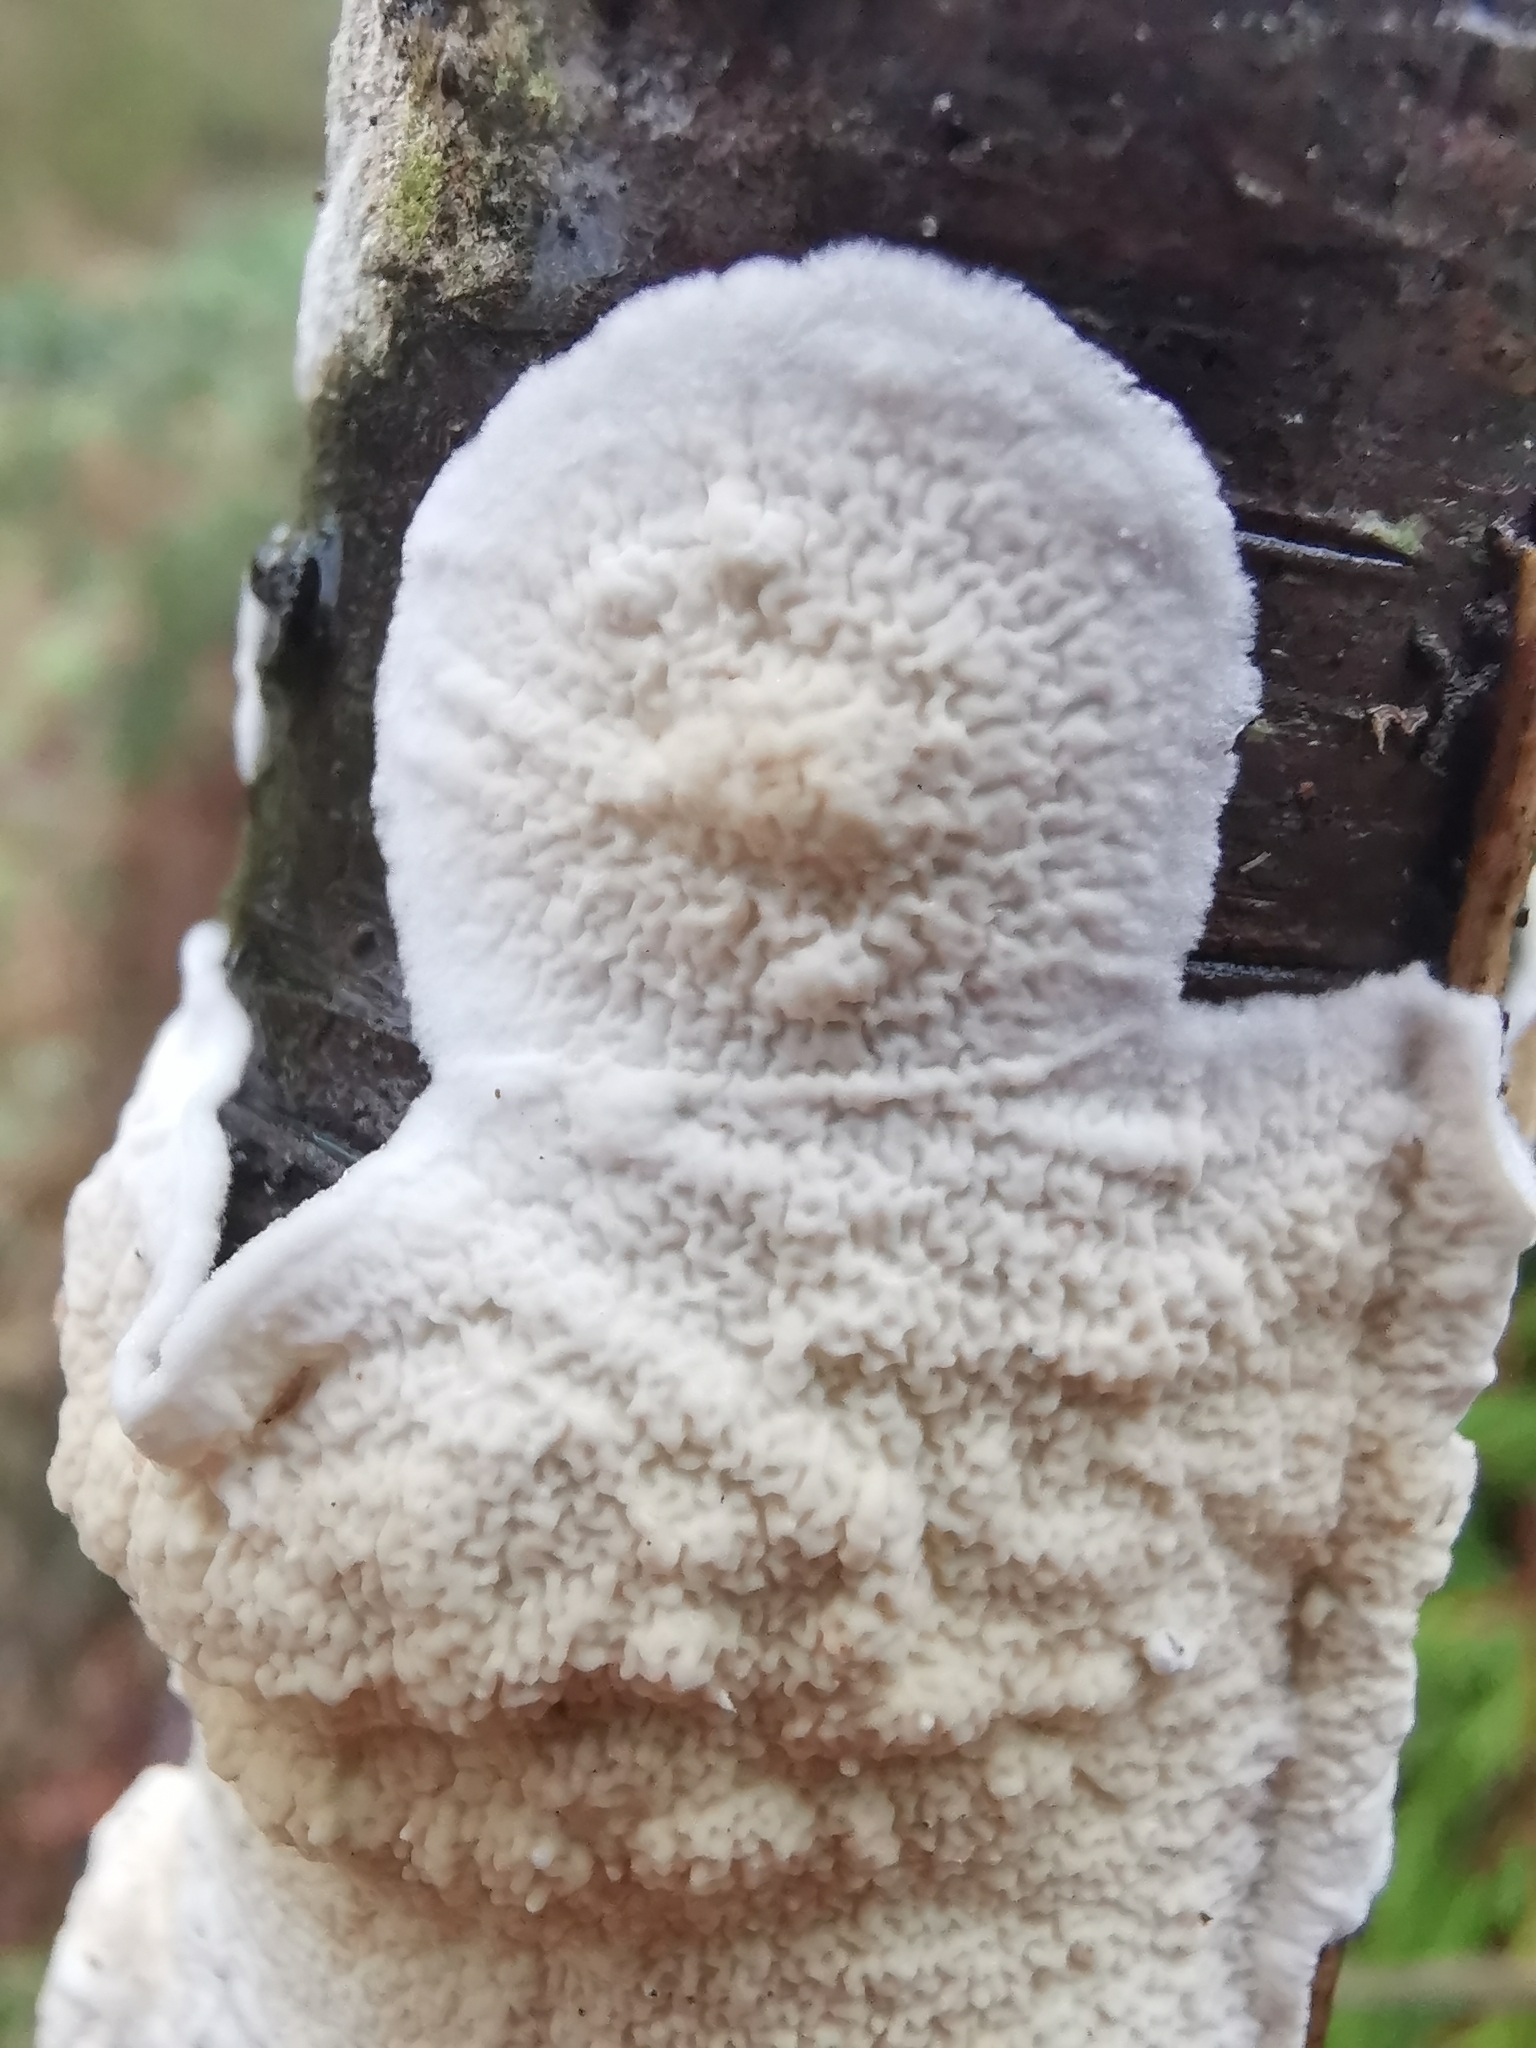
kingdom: Fungi
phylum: Basidiomycota
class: Agaricomycetes
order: Polyporales
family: Irpicaceae
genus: Byssomerulius
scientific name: Byssomerulius corium
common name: Netted crust
